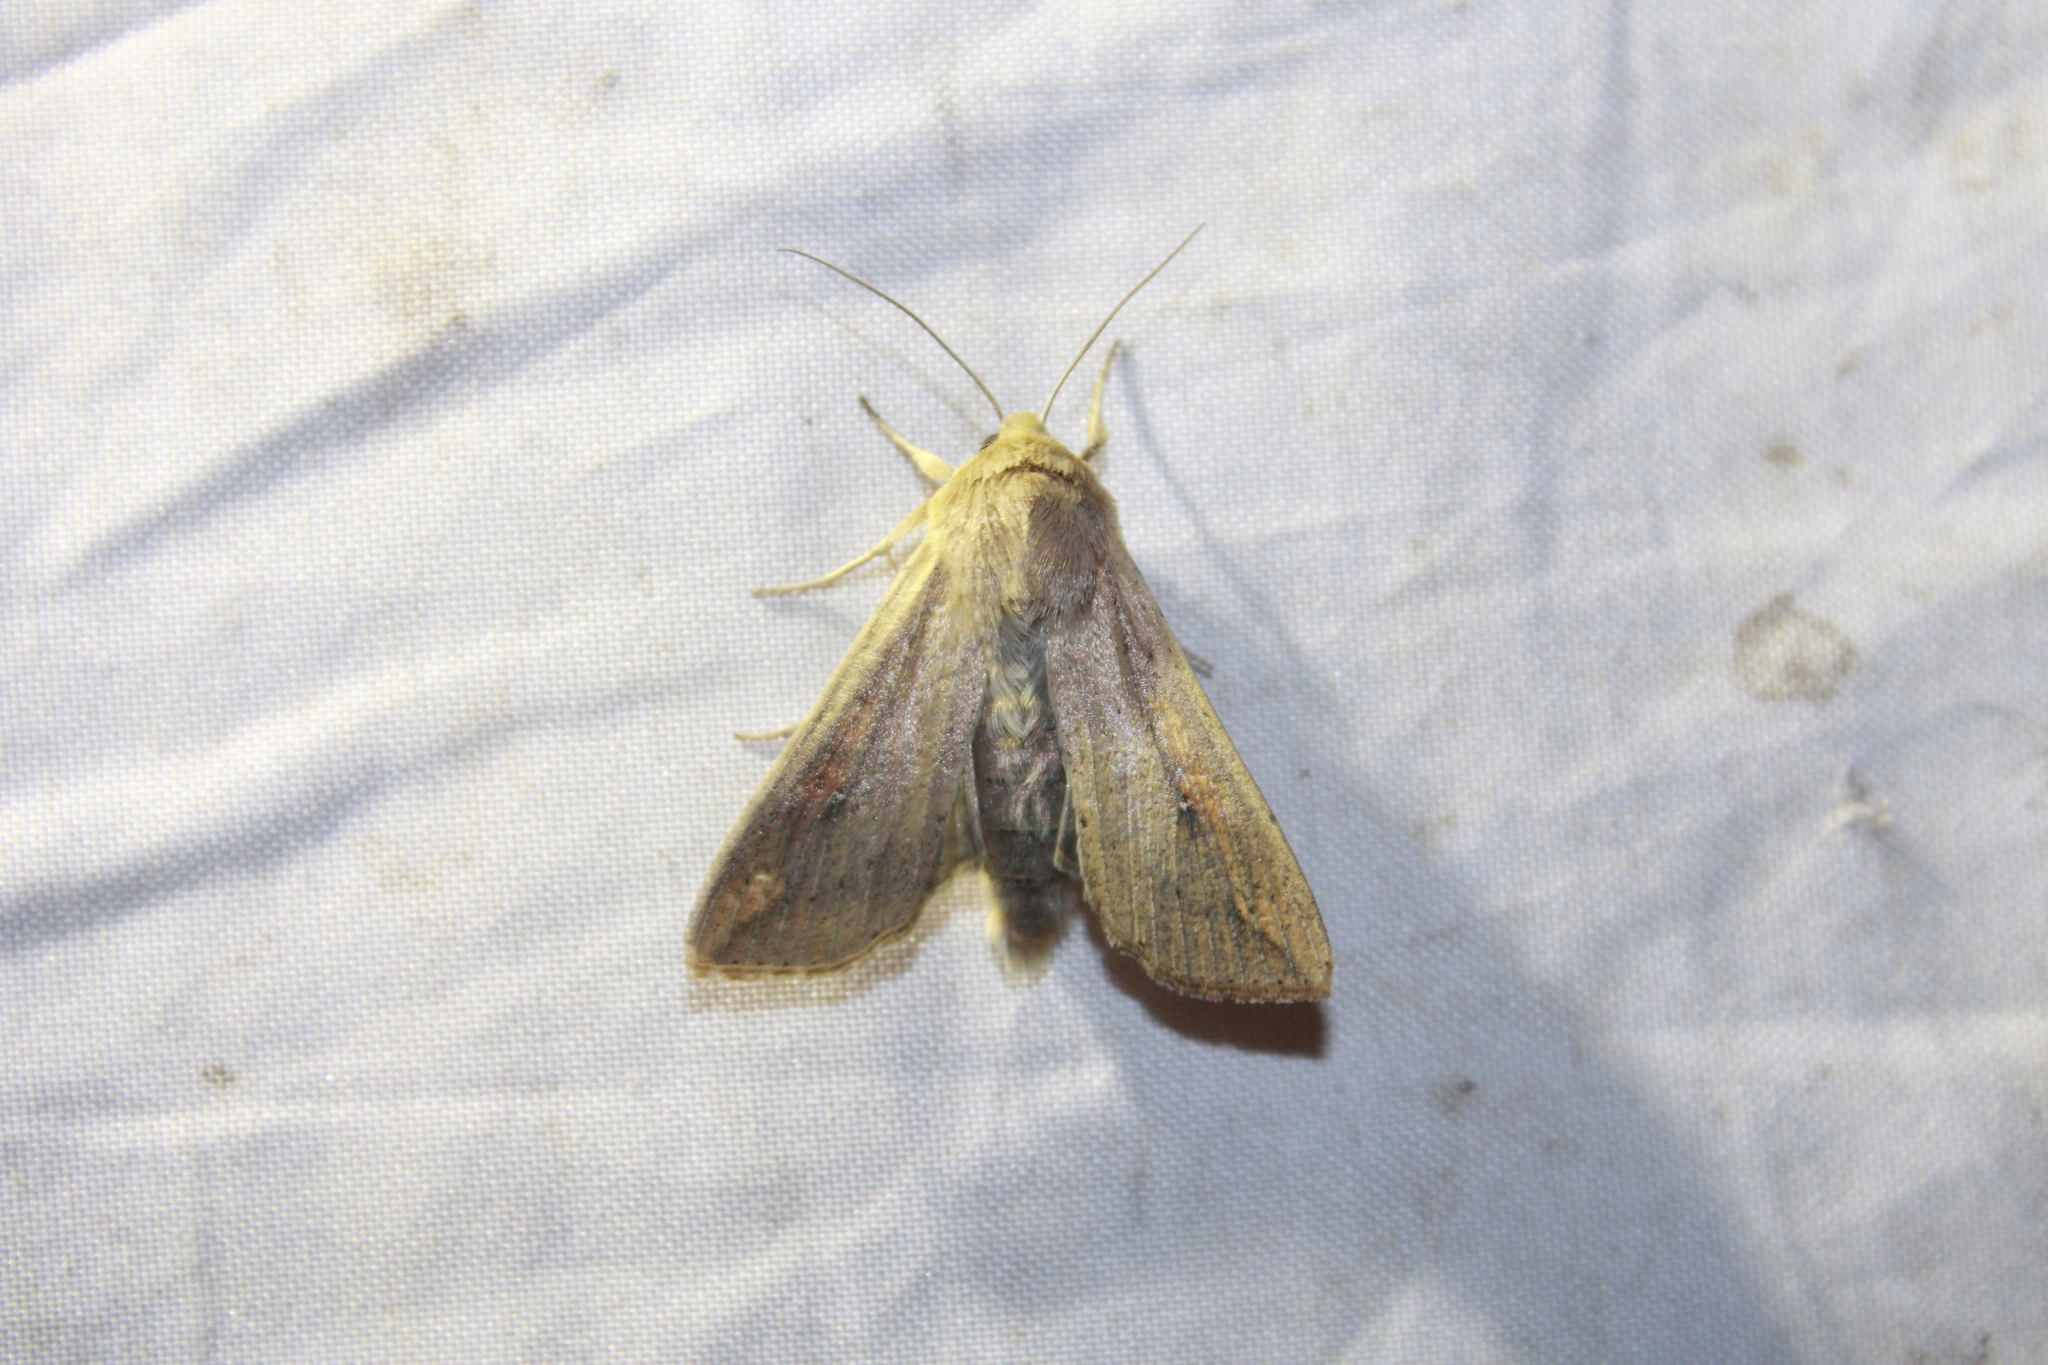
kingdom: Animalia
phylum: Arthropoda
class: Insecta
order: Lepidoptera
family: Noctuidae
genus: Mythimna
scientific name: Mythimna unipuncta
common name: White-speck
